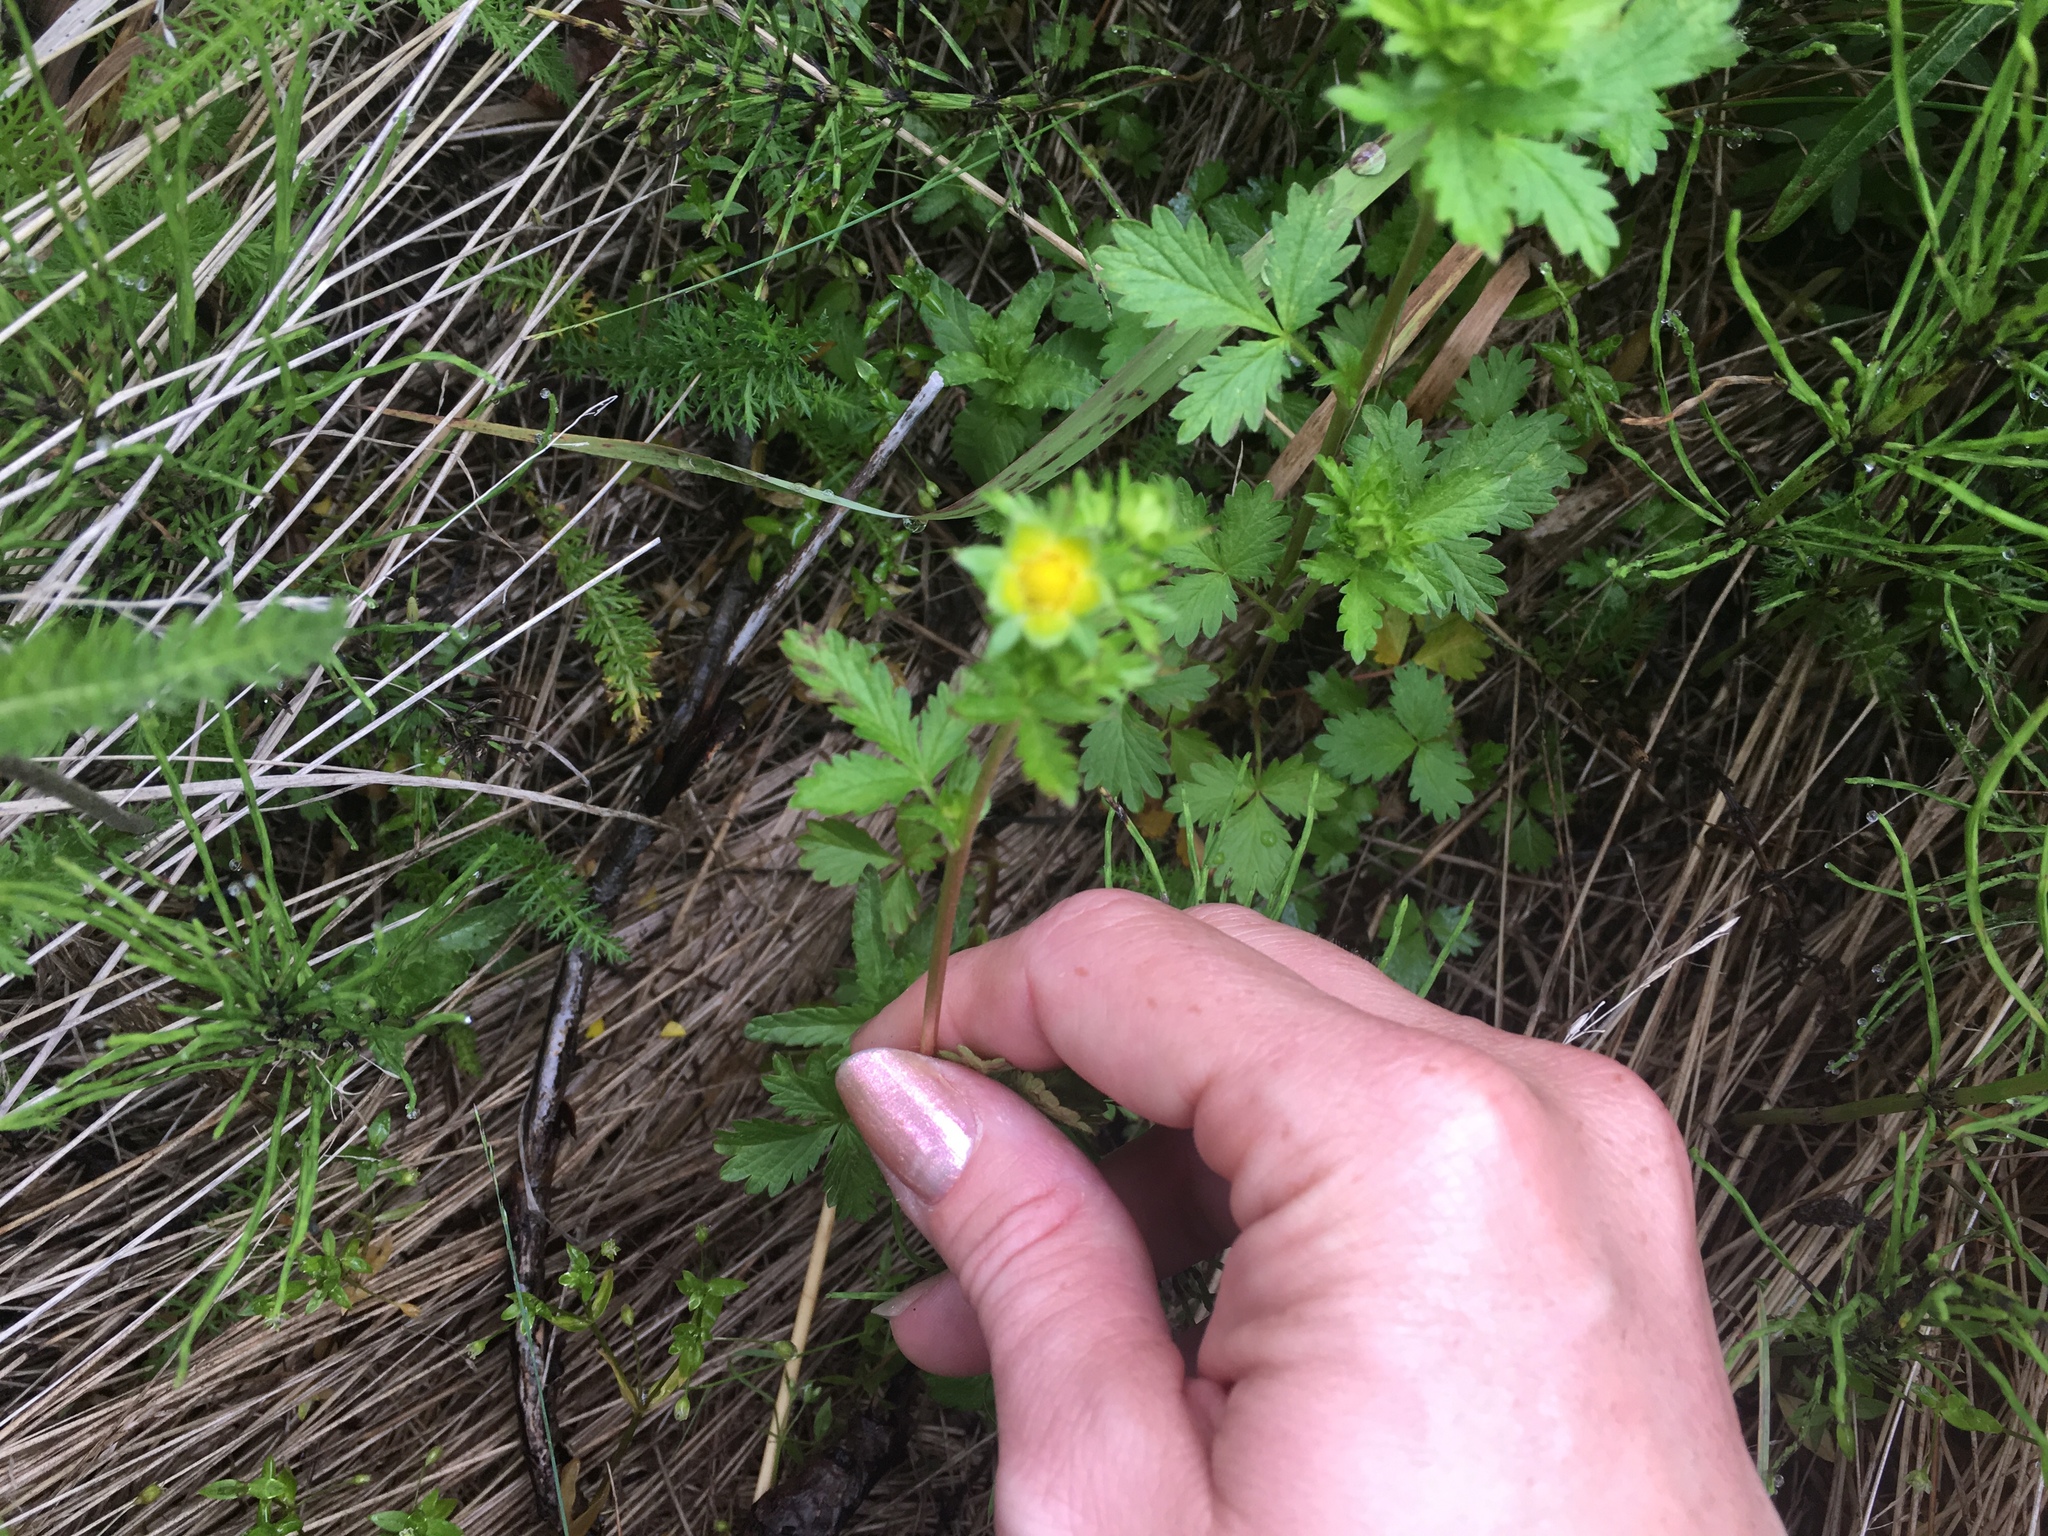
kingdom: Plantae
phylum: Tracheophyta
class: Magnoliopsida
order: Rosales
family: Rosaceae
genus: Potentilla
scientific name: Potentilla norvegica
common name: Ternate-leaved cinquefoil
